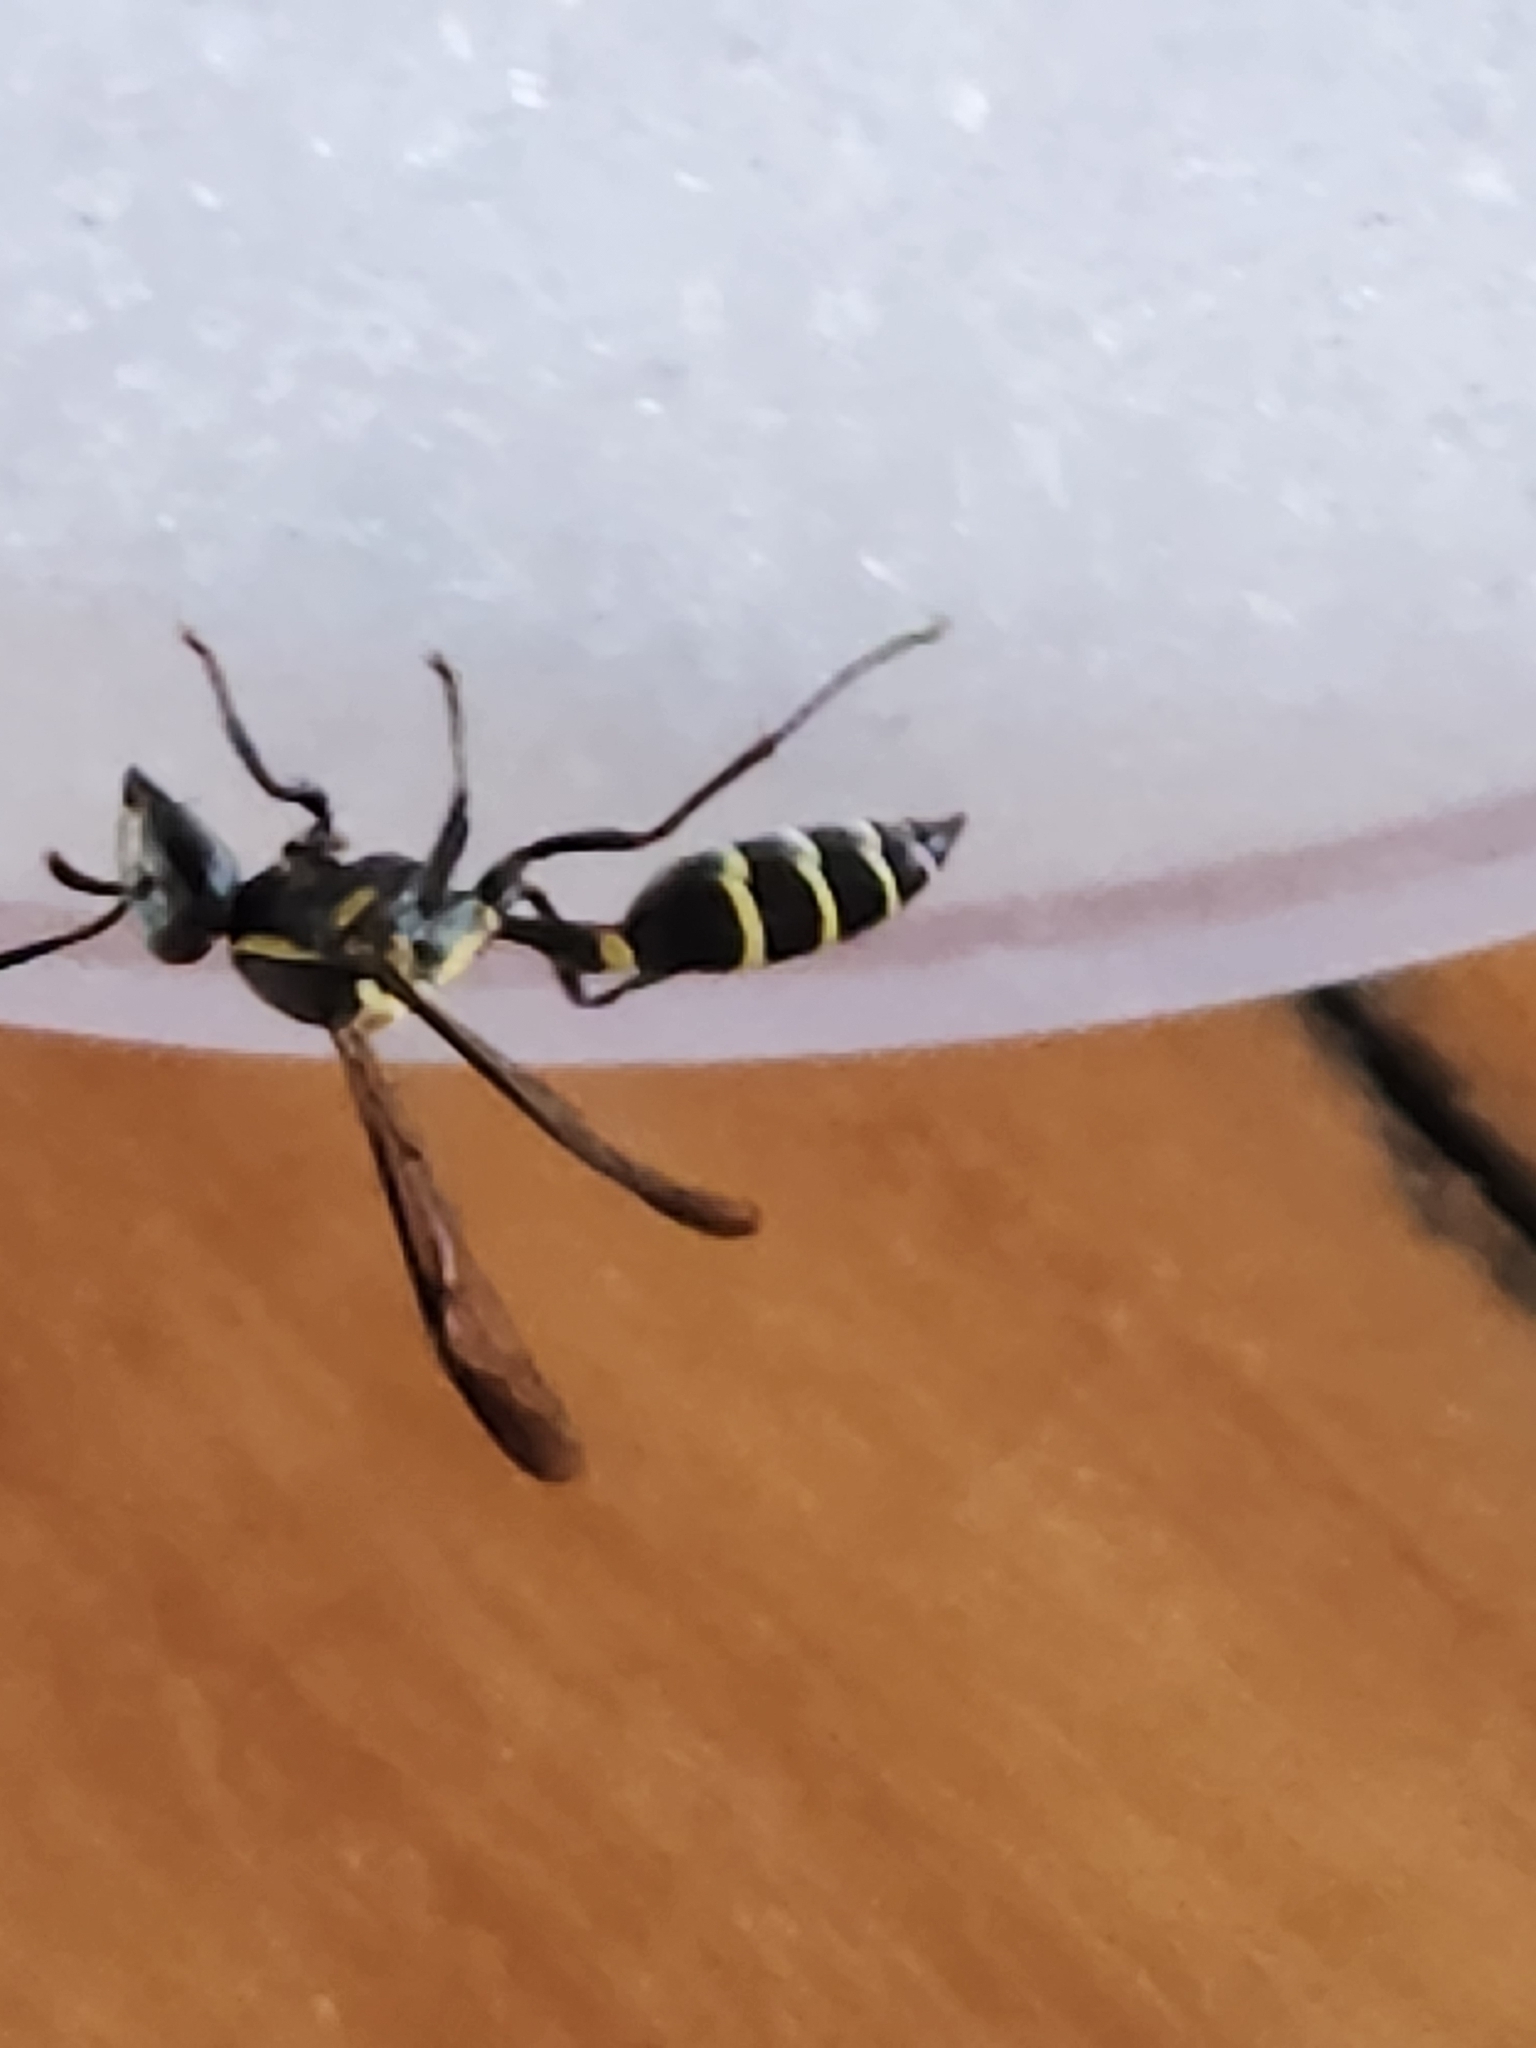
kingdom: Animalia
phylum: Arthropoda
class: Insecta
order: Hymenoptera
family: Eumenidae
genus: Polybia
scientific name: Polybia occidentalis
